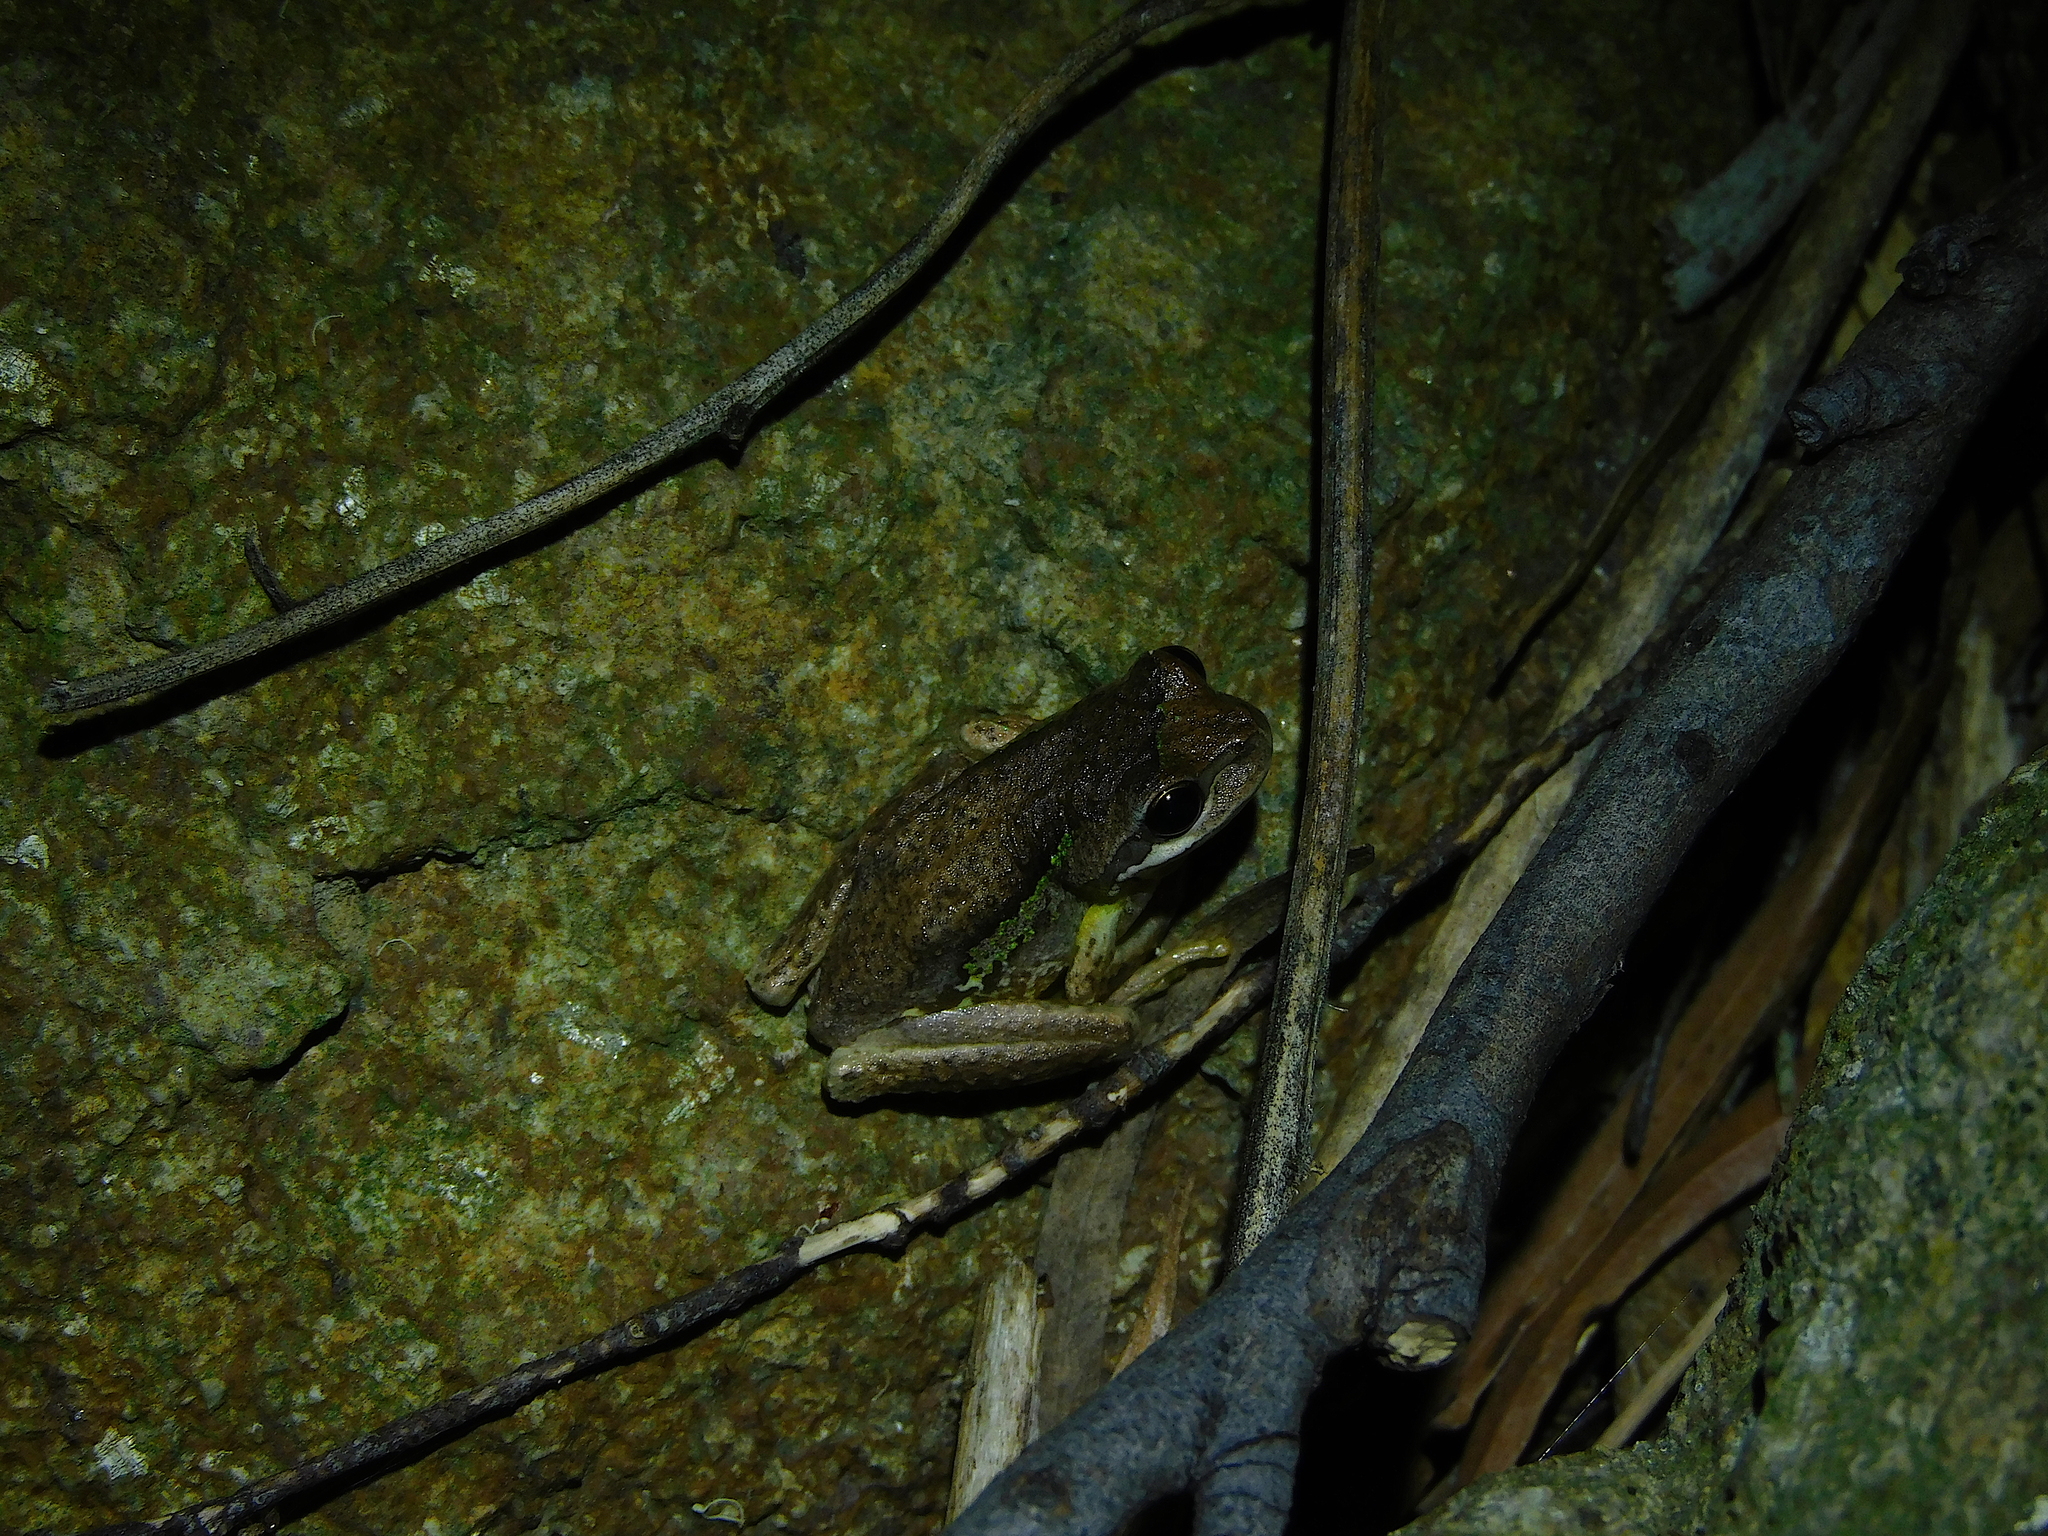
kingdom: Animalia
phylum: Chordata
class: Amphibia
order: Anura
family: Pelodryadidae
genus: Litoria
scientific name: Litoria ewingii
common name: Southern brown tree frog
